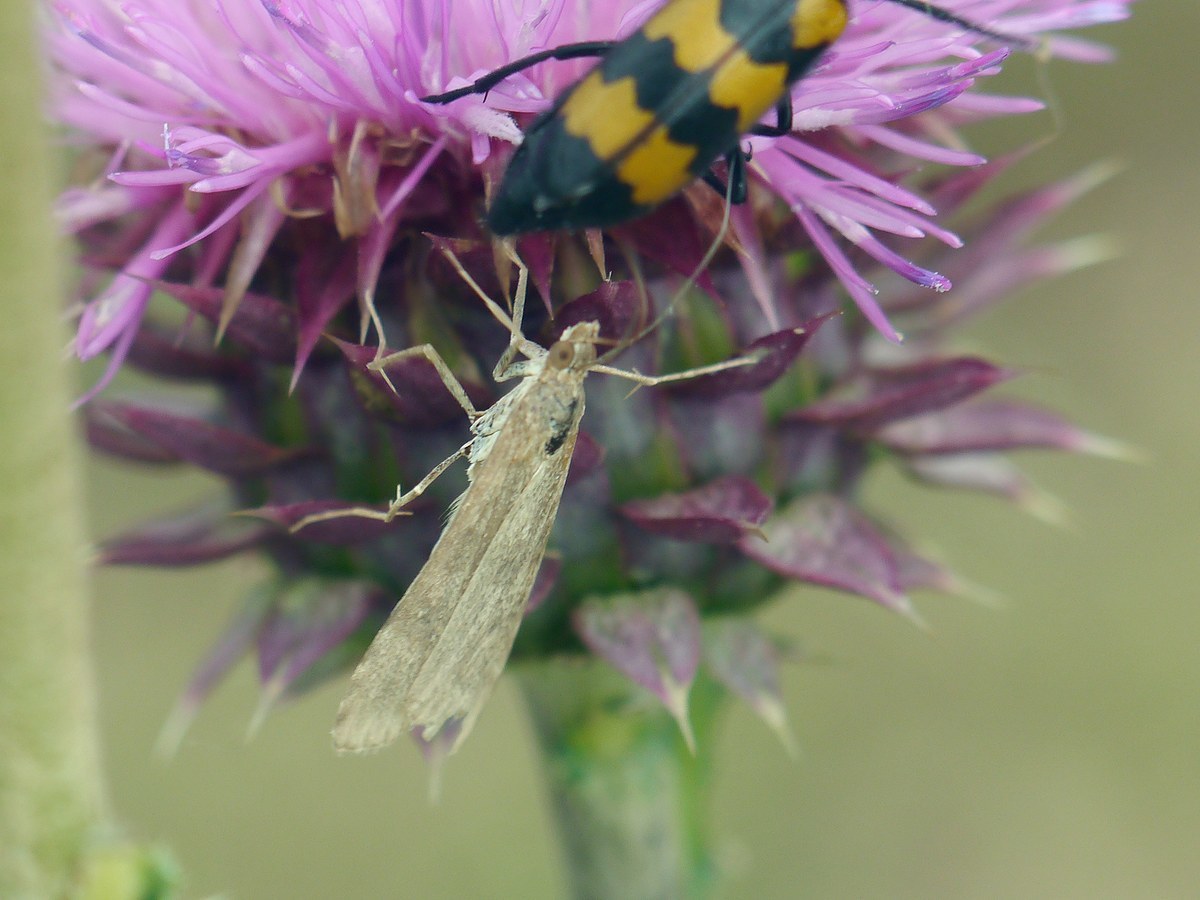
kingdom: Animalia
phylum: Arthropoda
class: Insecta
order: Lepidoptera
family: Crambidae
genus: Nomophila
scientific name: Nomophila noctuella
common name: Rush veneer
